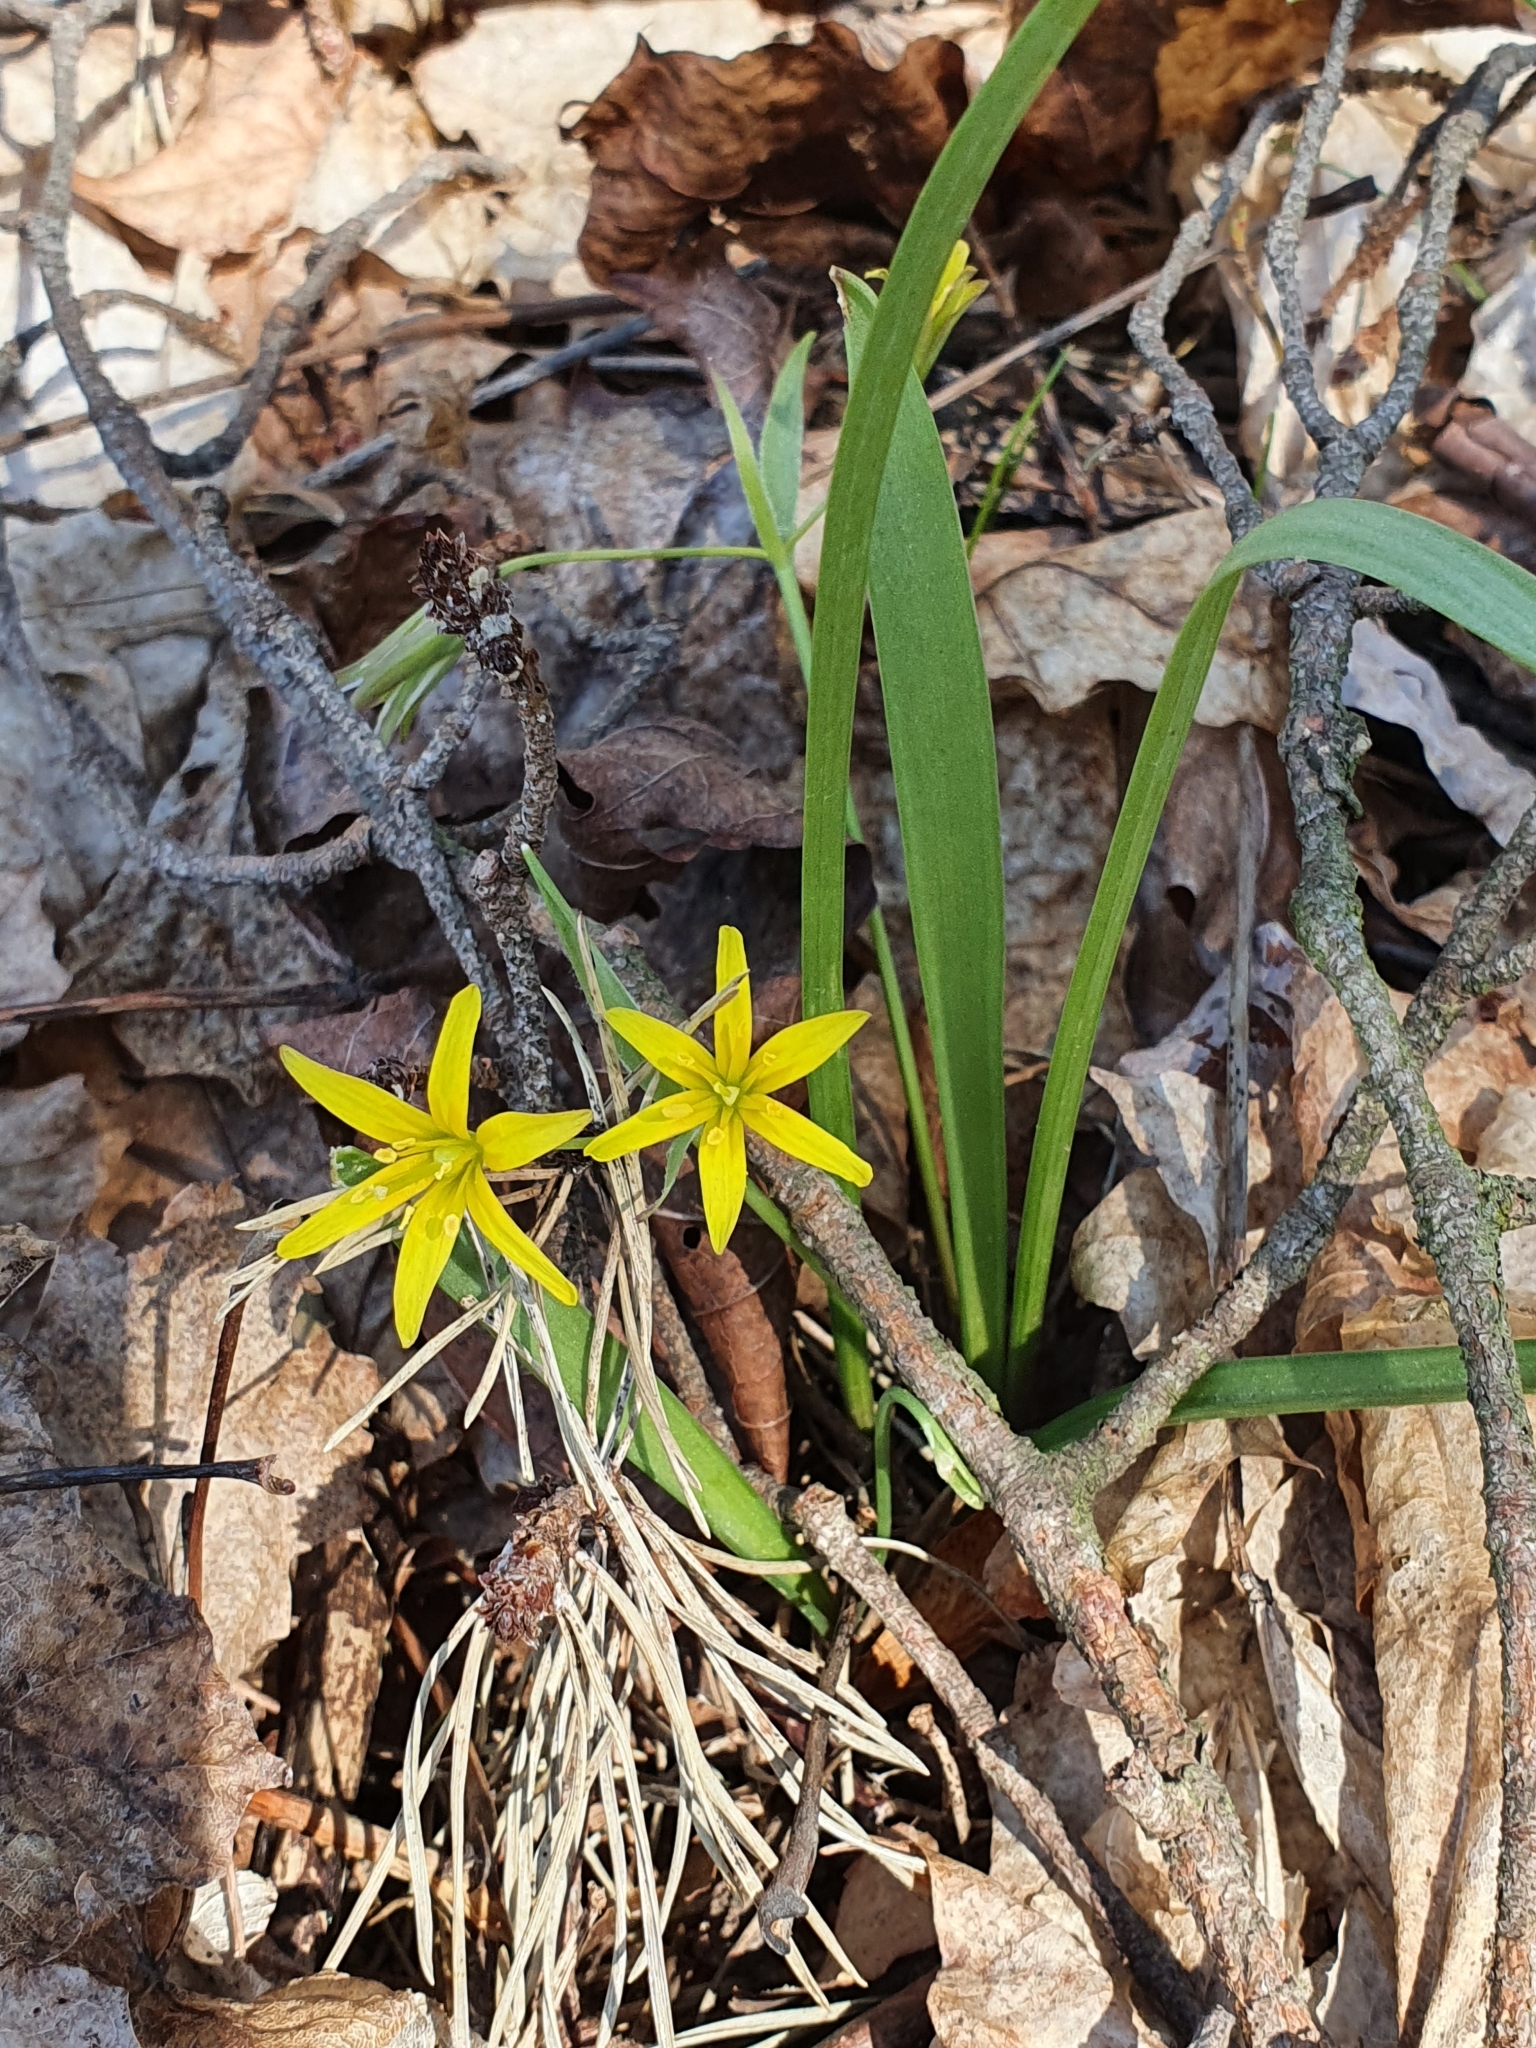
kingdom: Plantae
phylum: Tracheophyta
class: Liliopsida
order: Liliales
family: Liliaceae
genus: Gagea
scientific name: Gagea lutea
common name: Yellow star-of-bethlehem
